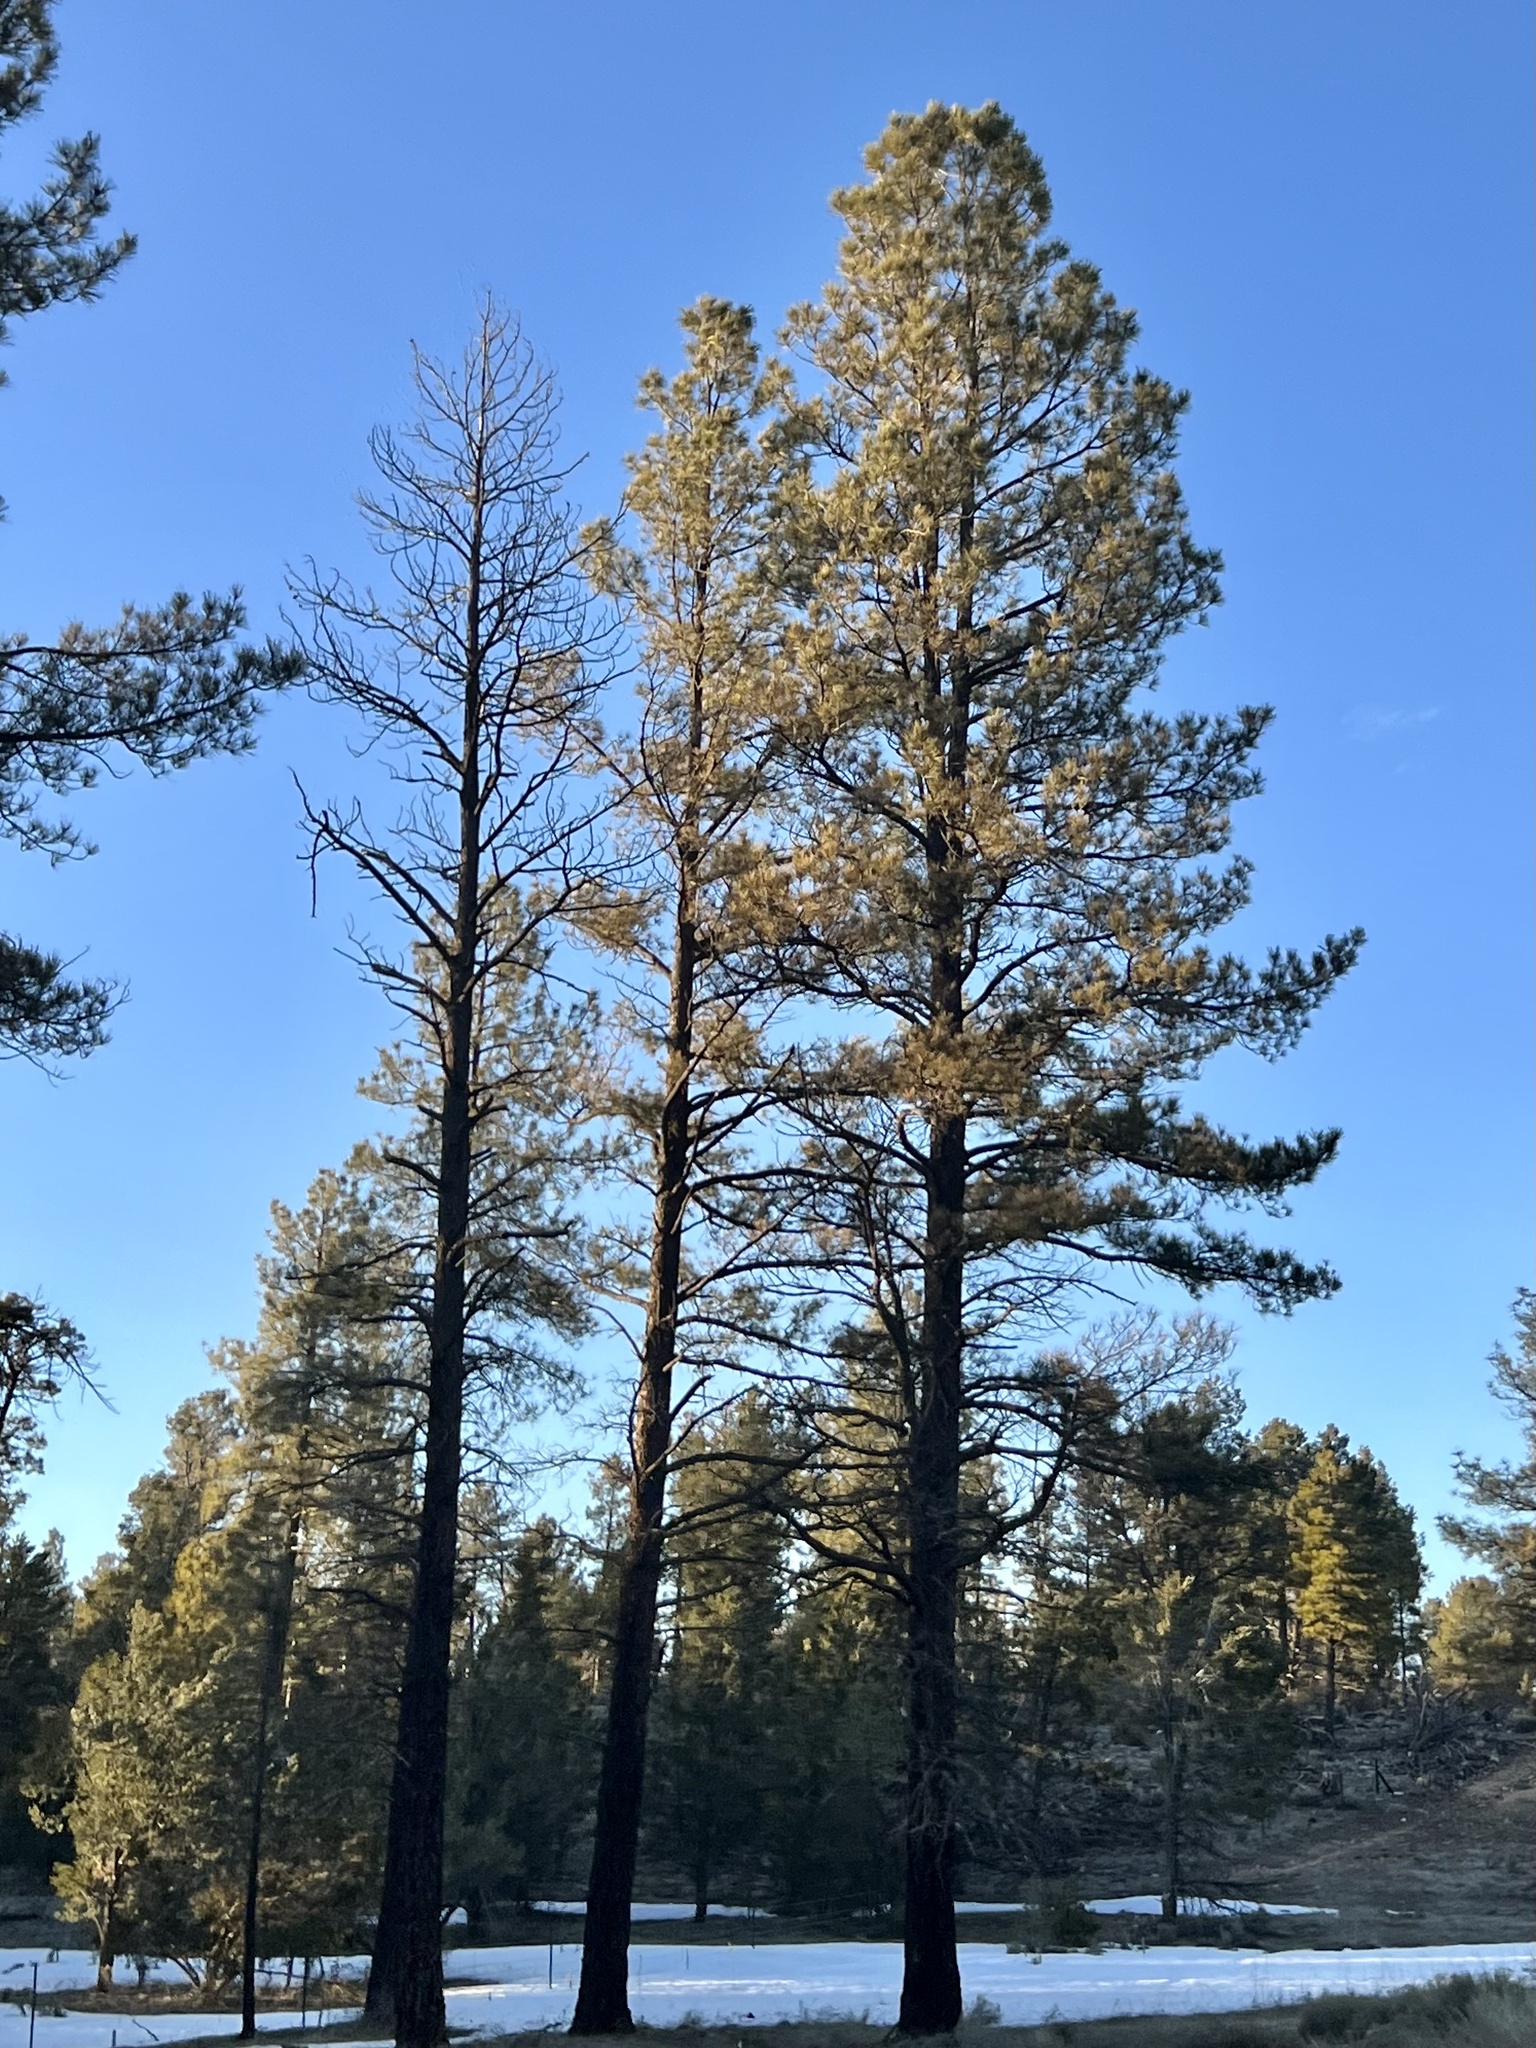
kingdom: Plantae
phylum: Tracheophyta
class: Pinopsida
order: Pinales
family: Pinaceae
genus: Pinus
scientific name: Pinus ponderosa
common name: Western yellow-pine
